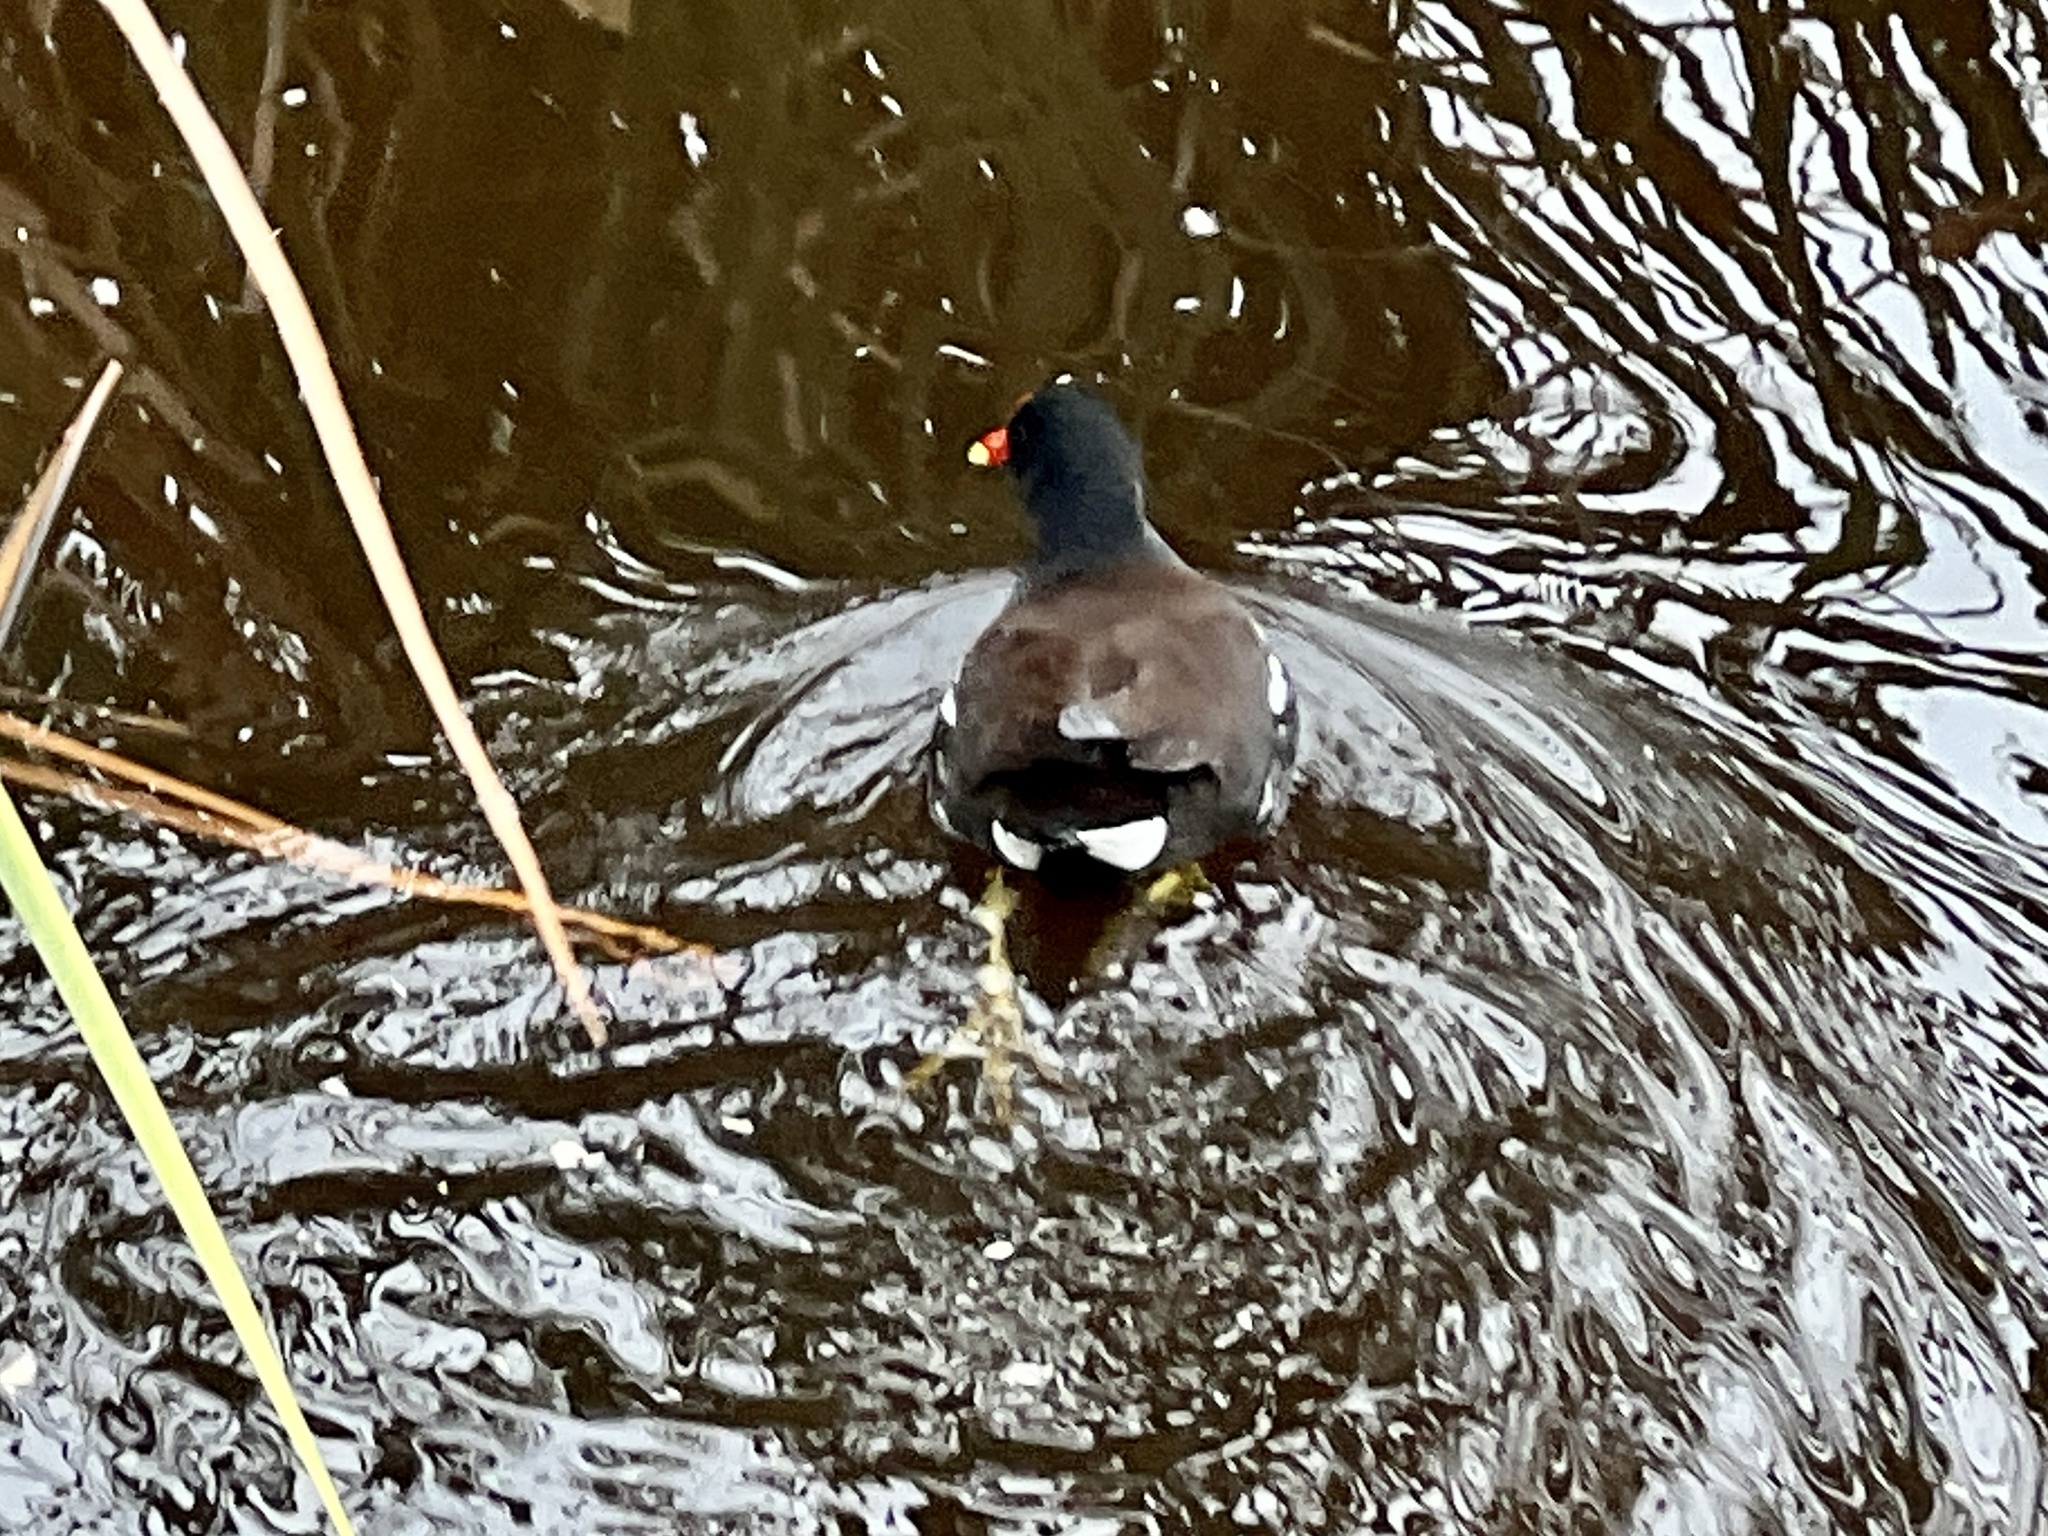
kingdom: Animalia
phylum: Chordata
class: Aves
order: Gruiformes
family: Rallidae
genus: Gallinula
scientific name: Gallinula chloropus
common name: Common moorhen
